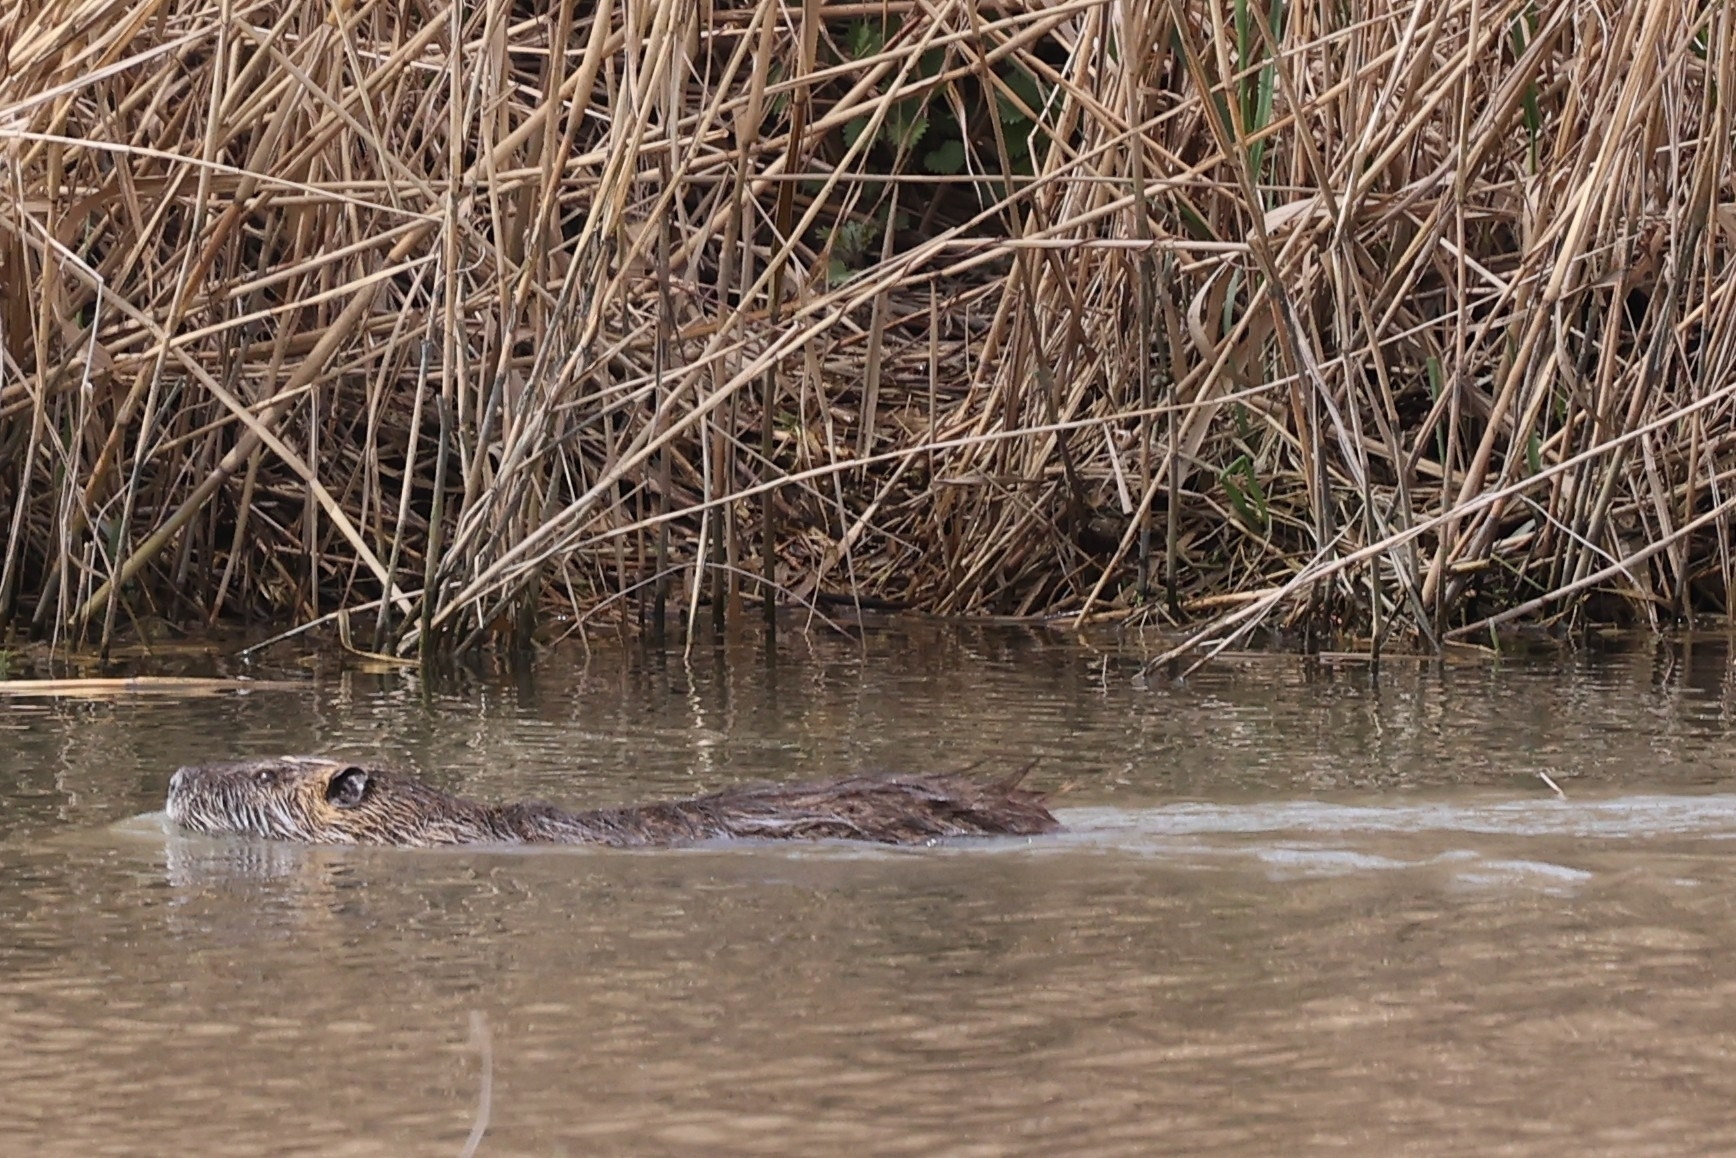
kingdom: Animalia
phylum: Chordata
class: Mammalia
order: Rodentia
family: Myocastoridae
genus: Myocastor
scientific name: Myocastor coypus
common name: Coypu
